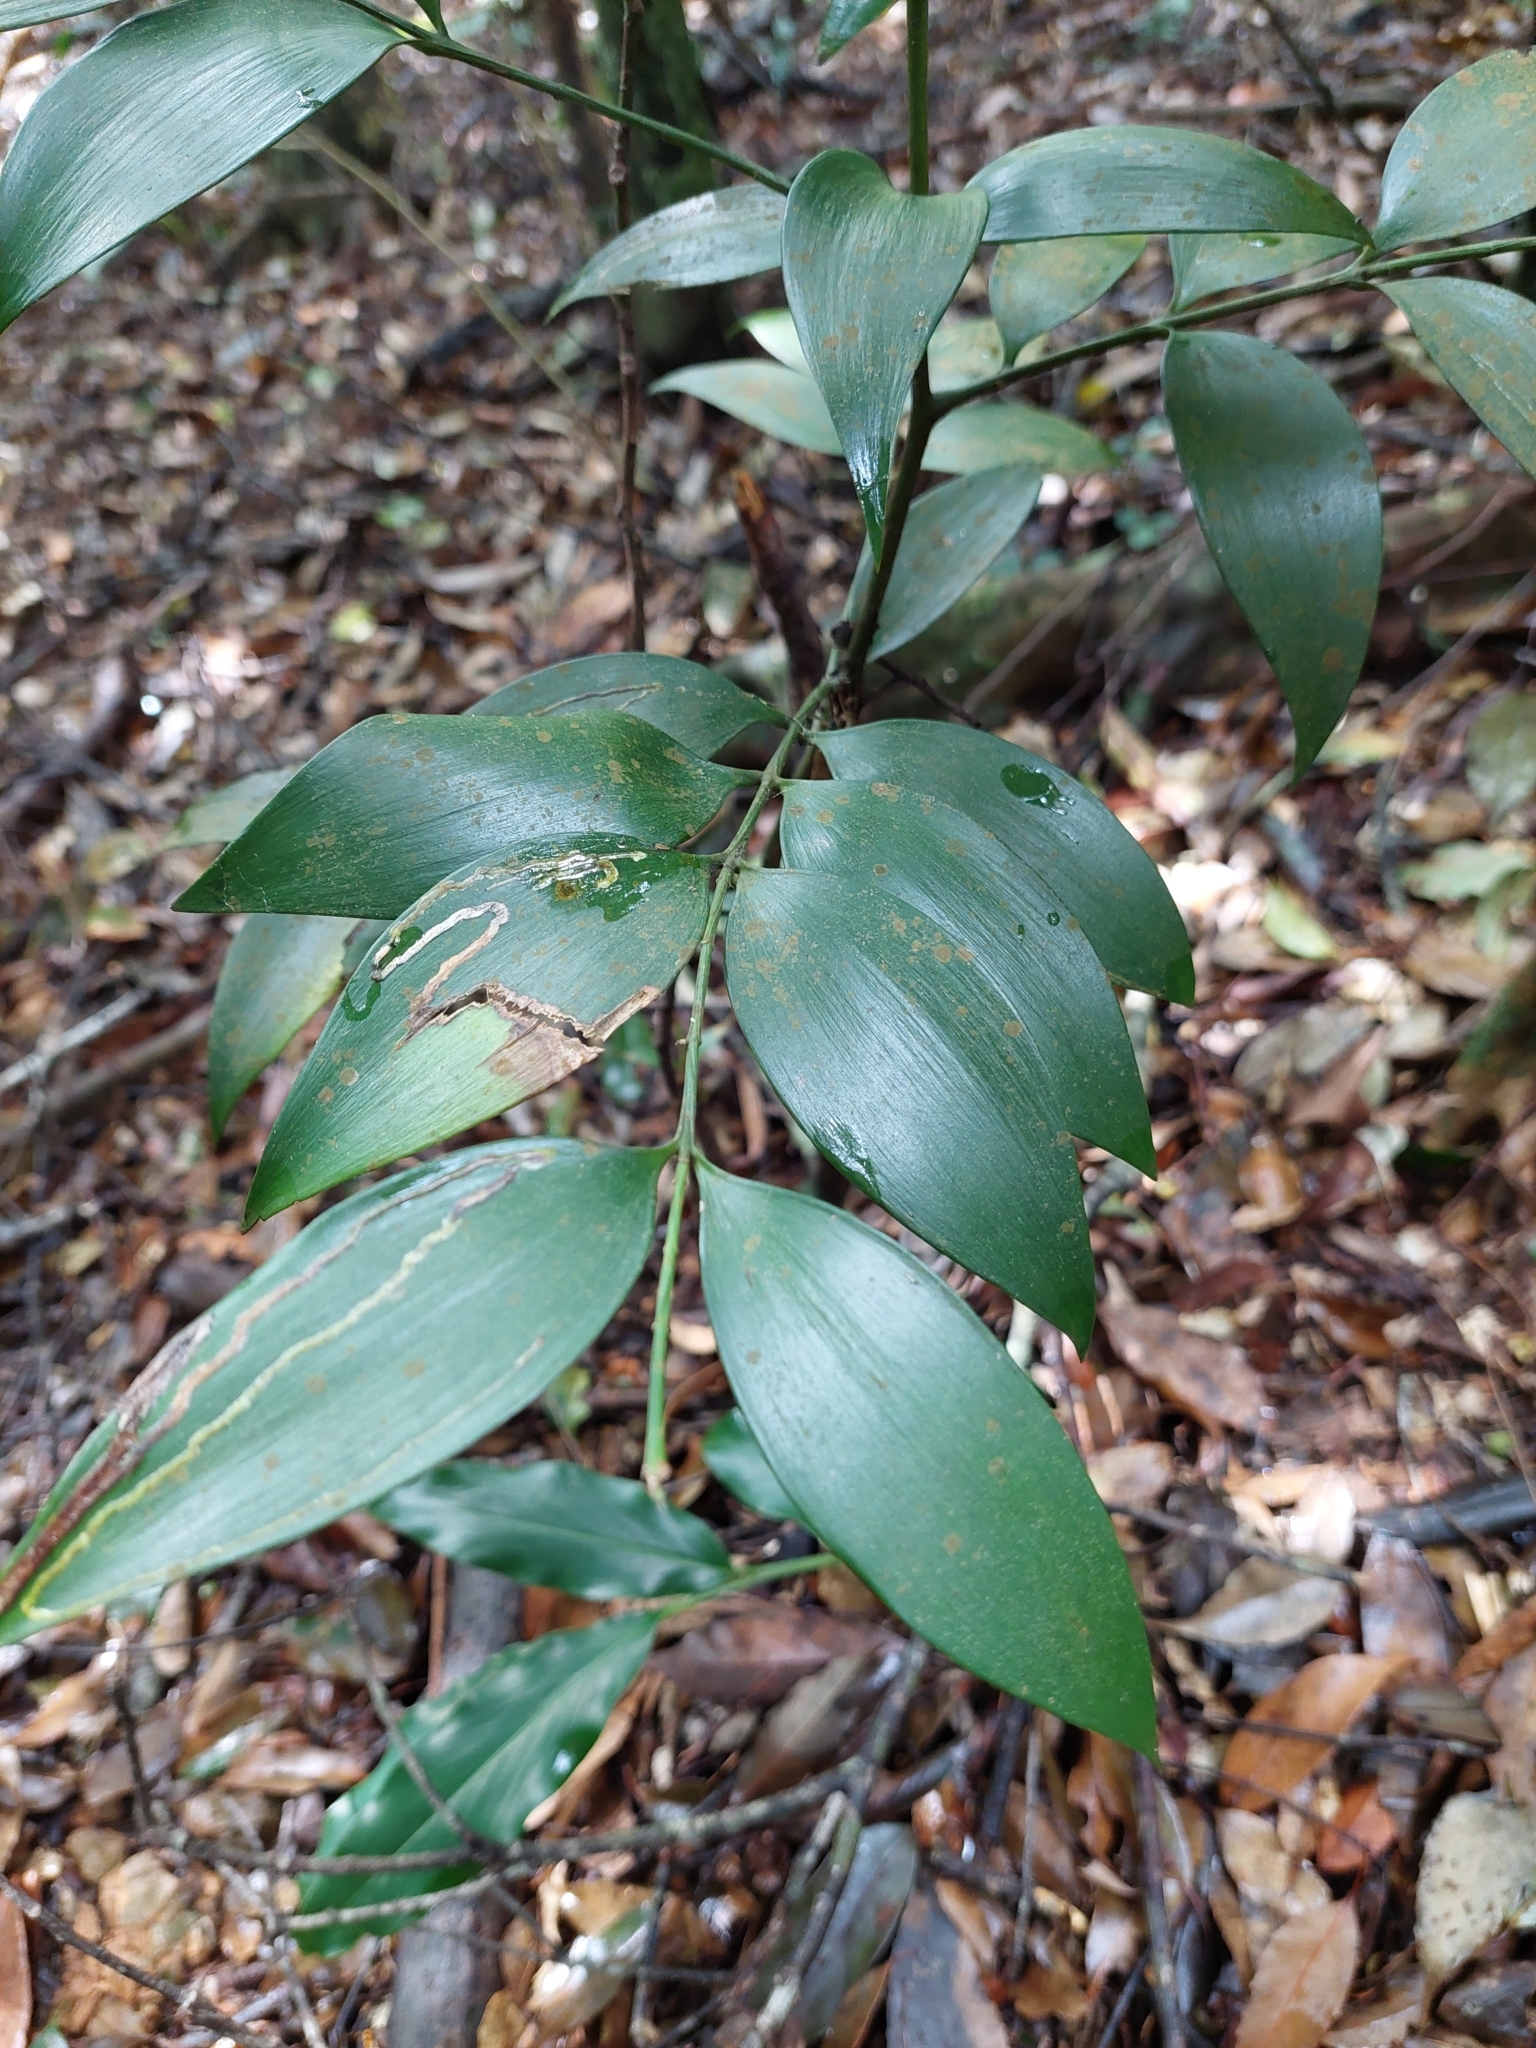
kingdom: Plantae
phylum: Tracheophyta
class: Pinopsida
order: Pinales
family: Podocarpaceae
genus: Nageia
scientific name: Nageia nagi
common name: Kaphal
